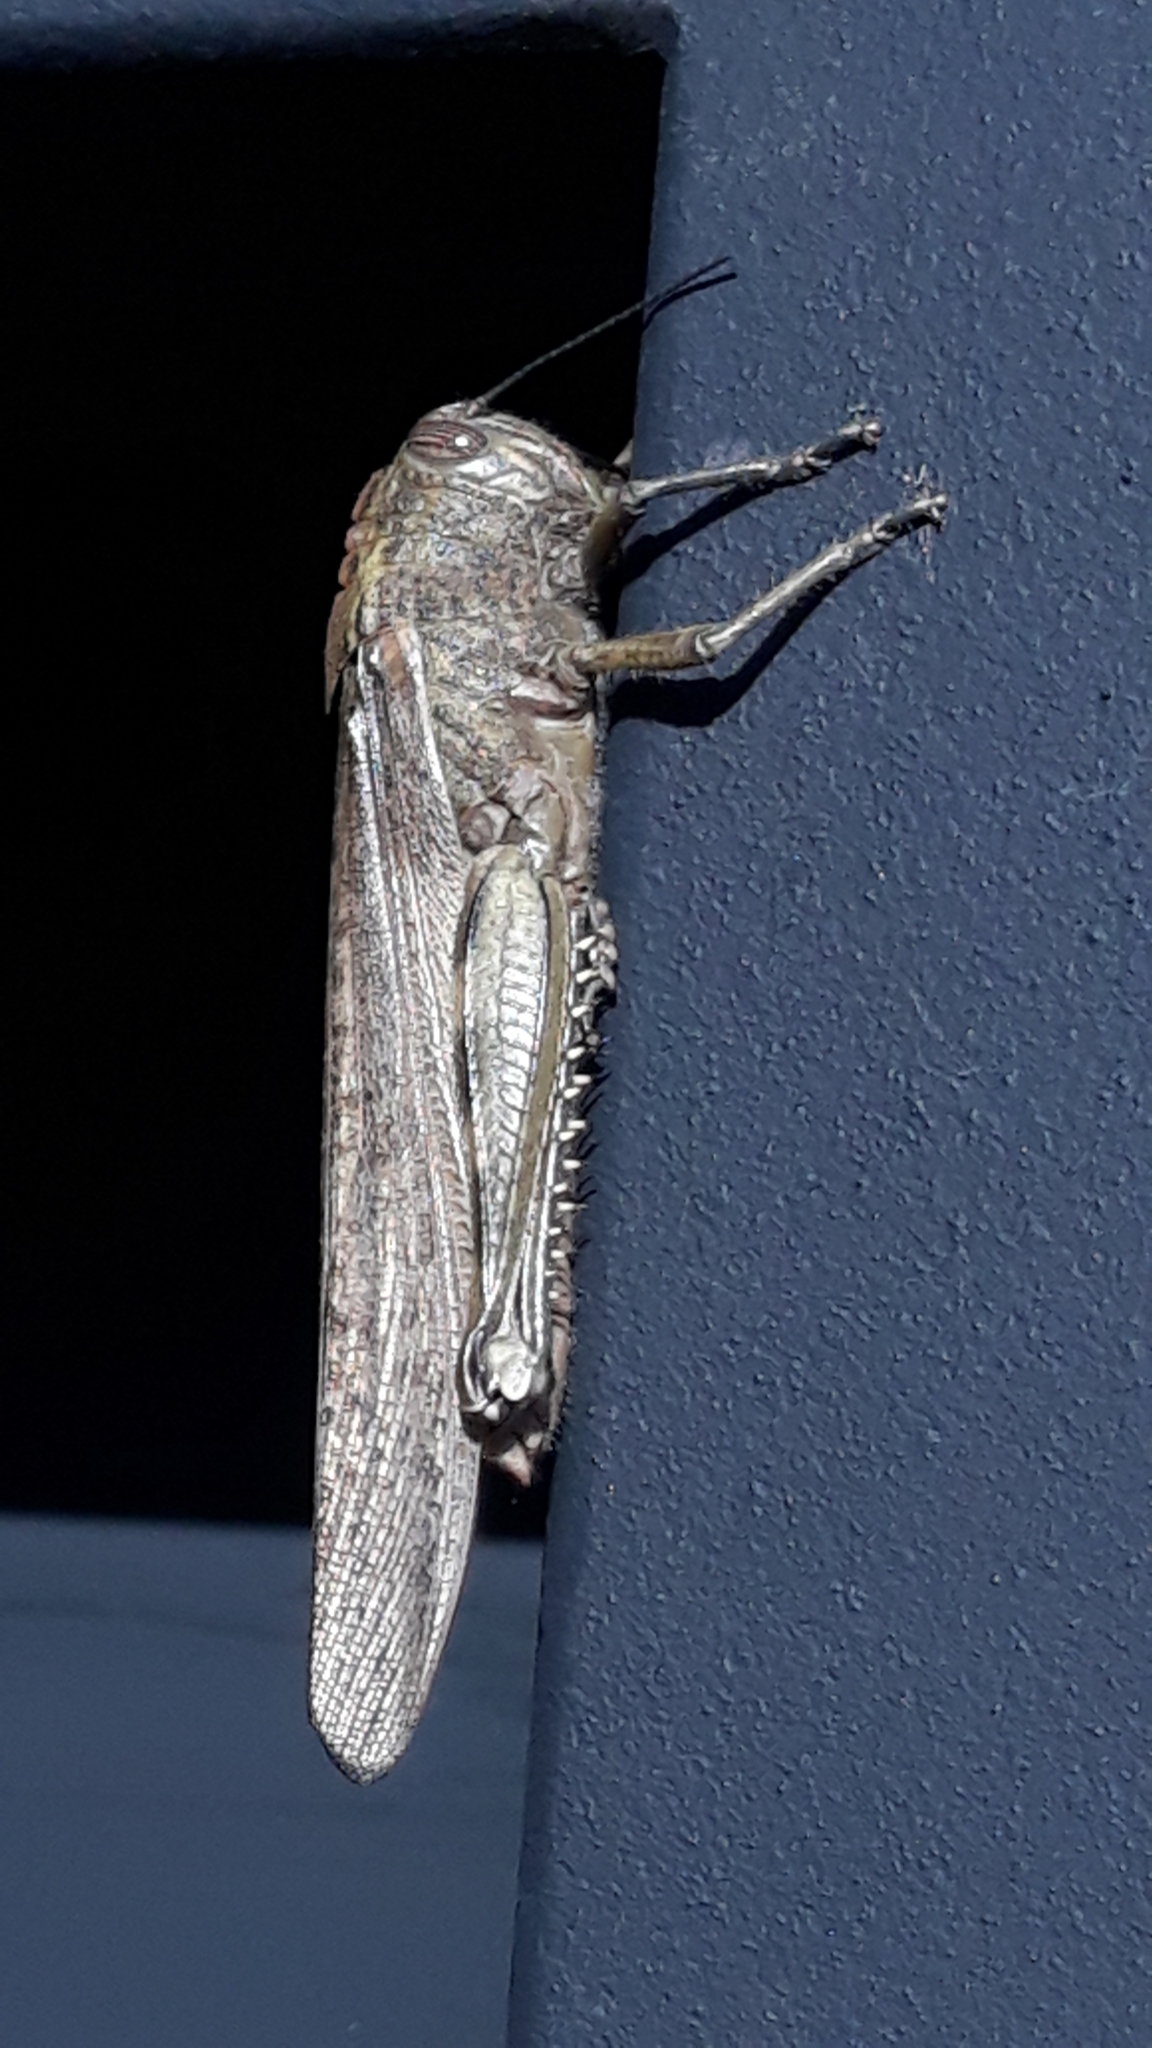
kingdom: Animalia
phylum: Arthropoda
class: Insecta
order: Orthoptera
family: Acrididae
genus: Anacridium
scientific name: Anacridium aegyptium
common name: Egyptian grasshopper
